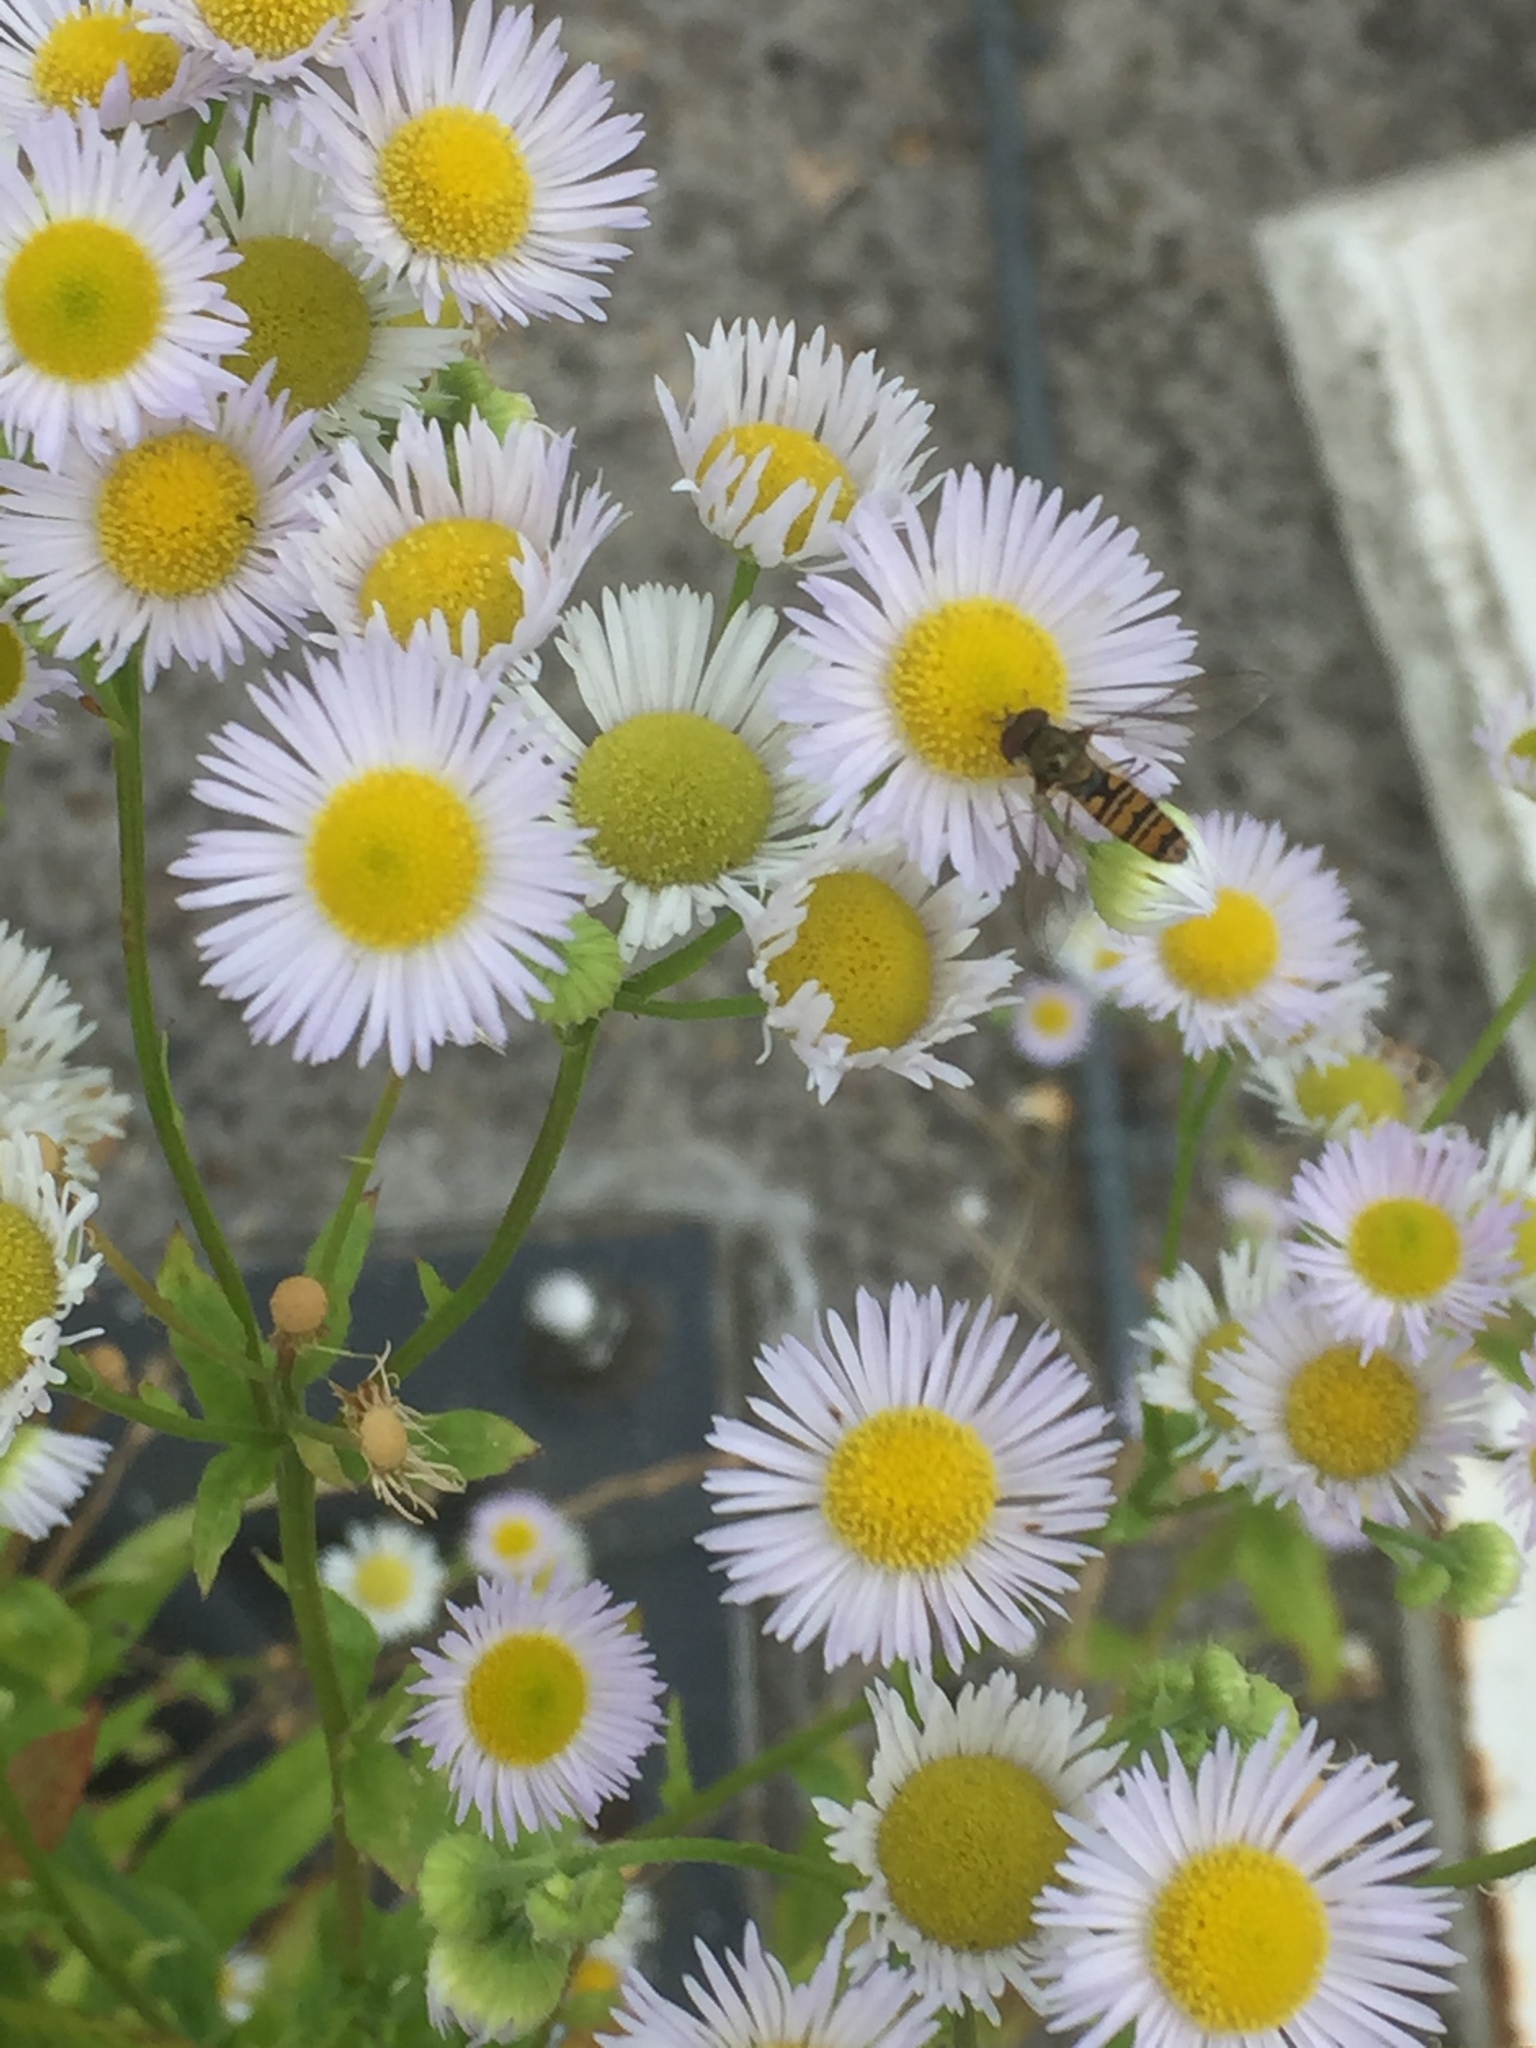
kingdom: Animalia
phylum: Arthropoda
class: Insecta
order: Diptera
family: Syrphidae
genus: Episyrphus
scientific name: Episyrphus balteatus
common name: Marmalade hoverfly
